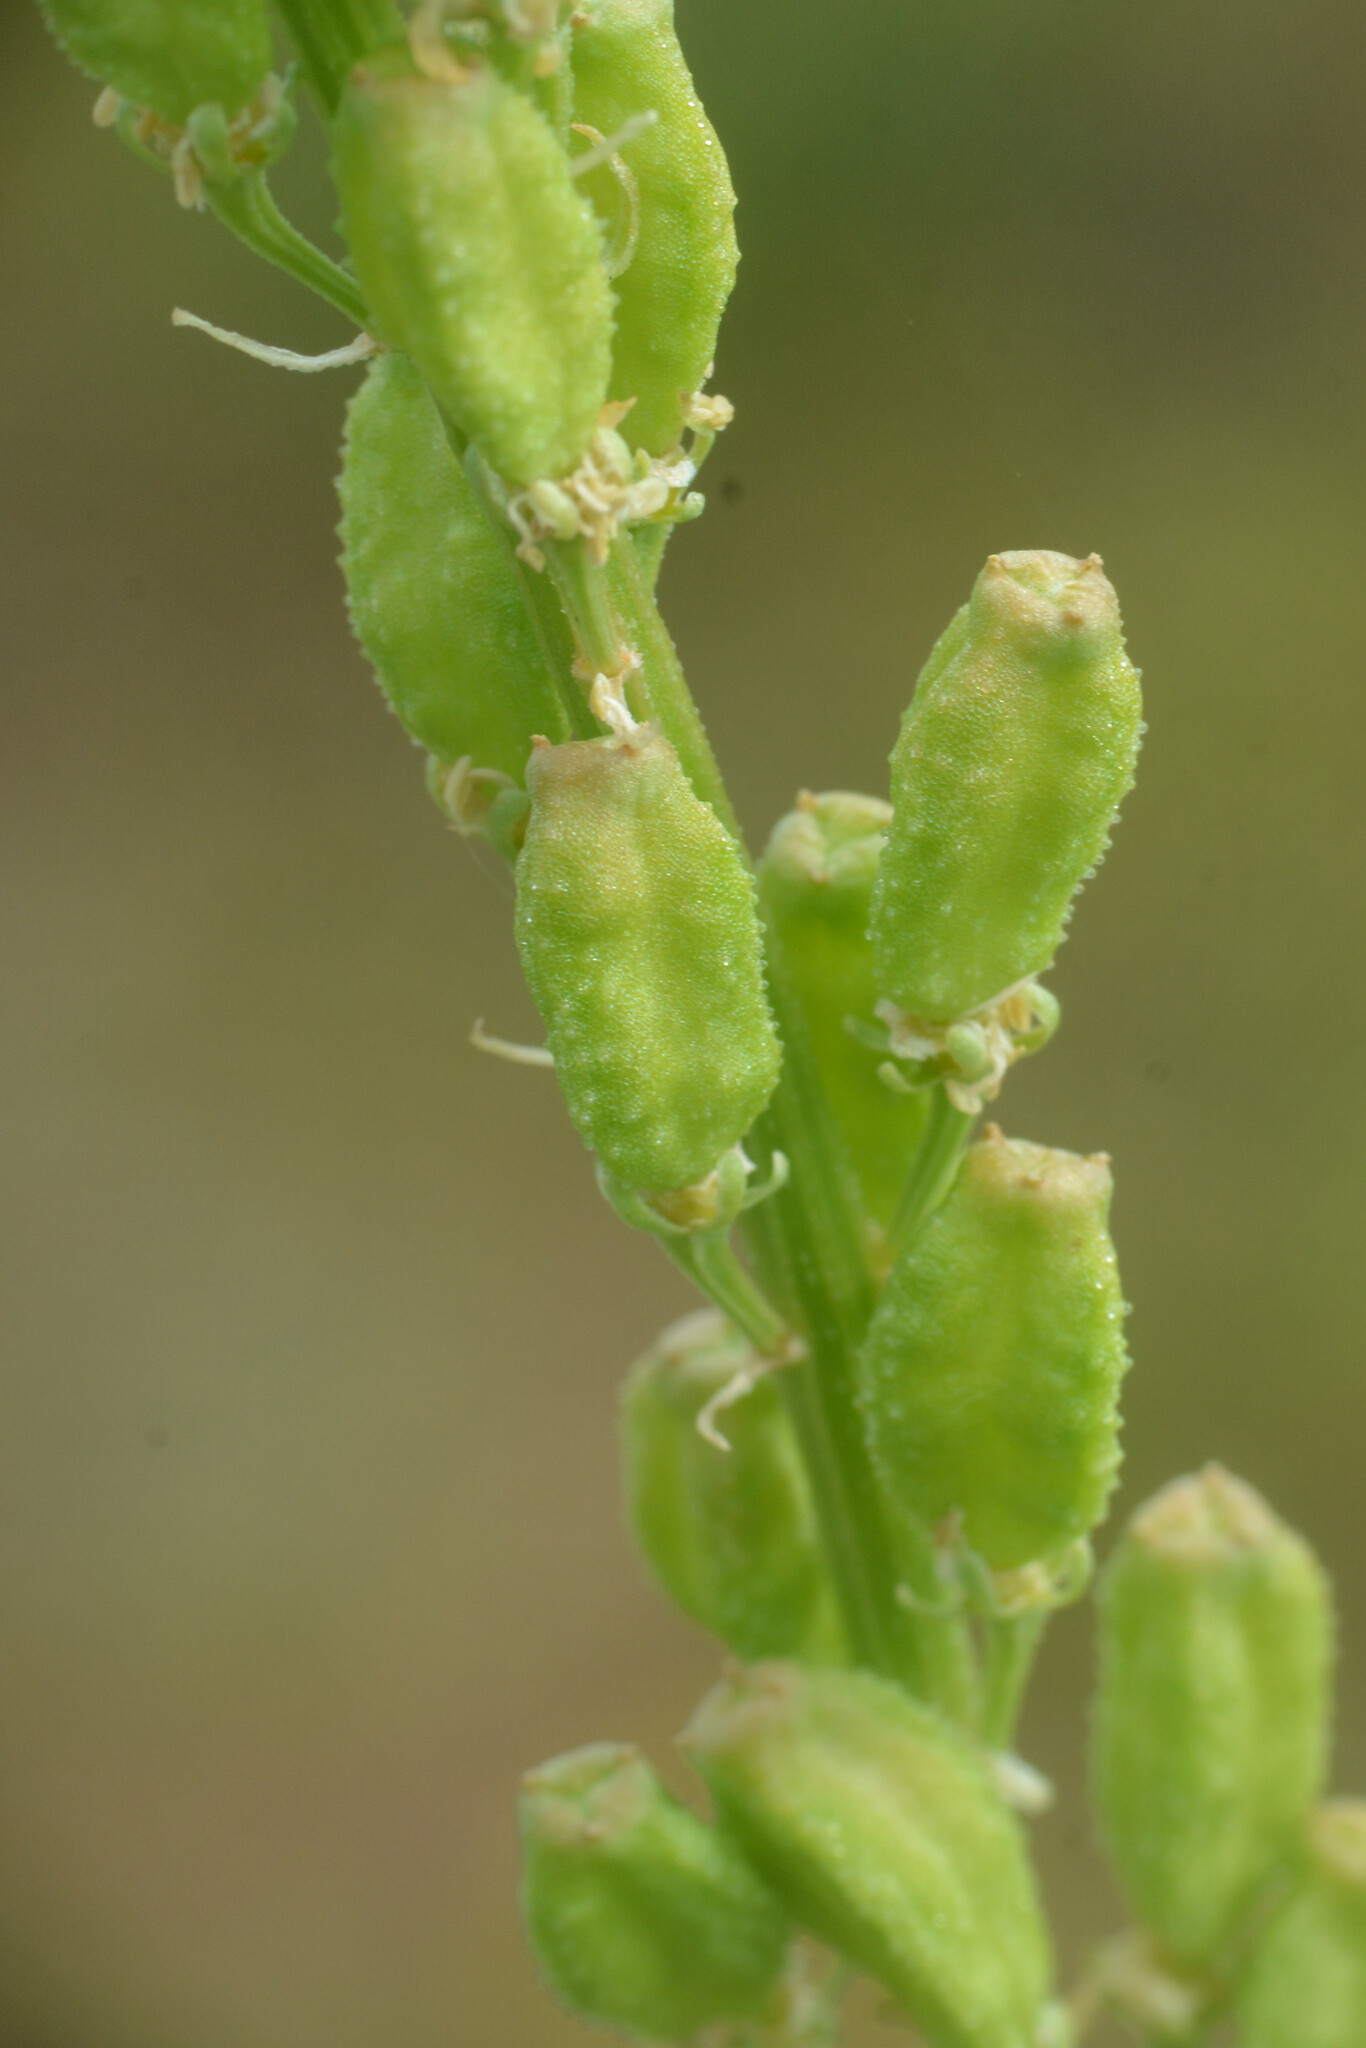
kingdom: Plantae
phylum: Tracheophyta
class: Magnoliopsida
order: Brassicales
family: Resedaceae
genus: Reseda
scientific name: Reseda lutea
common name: Wild mignonette
